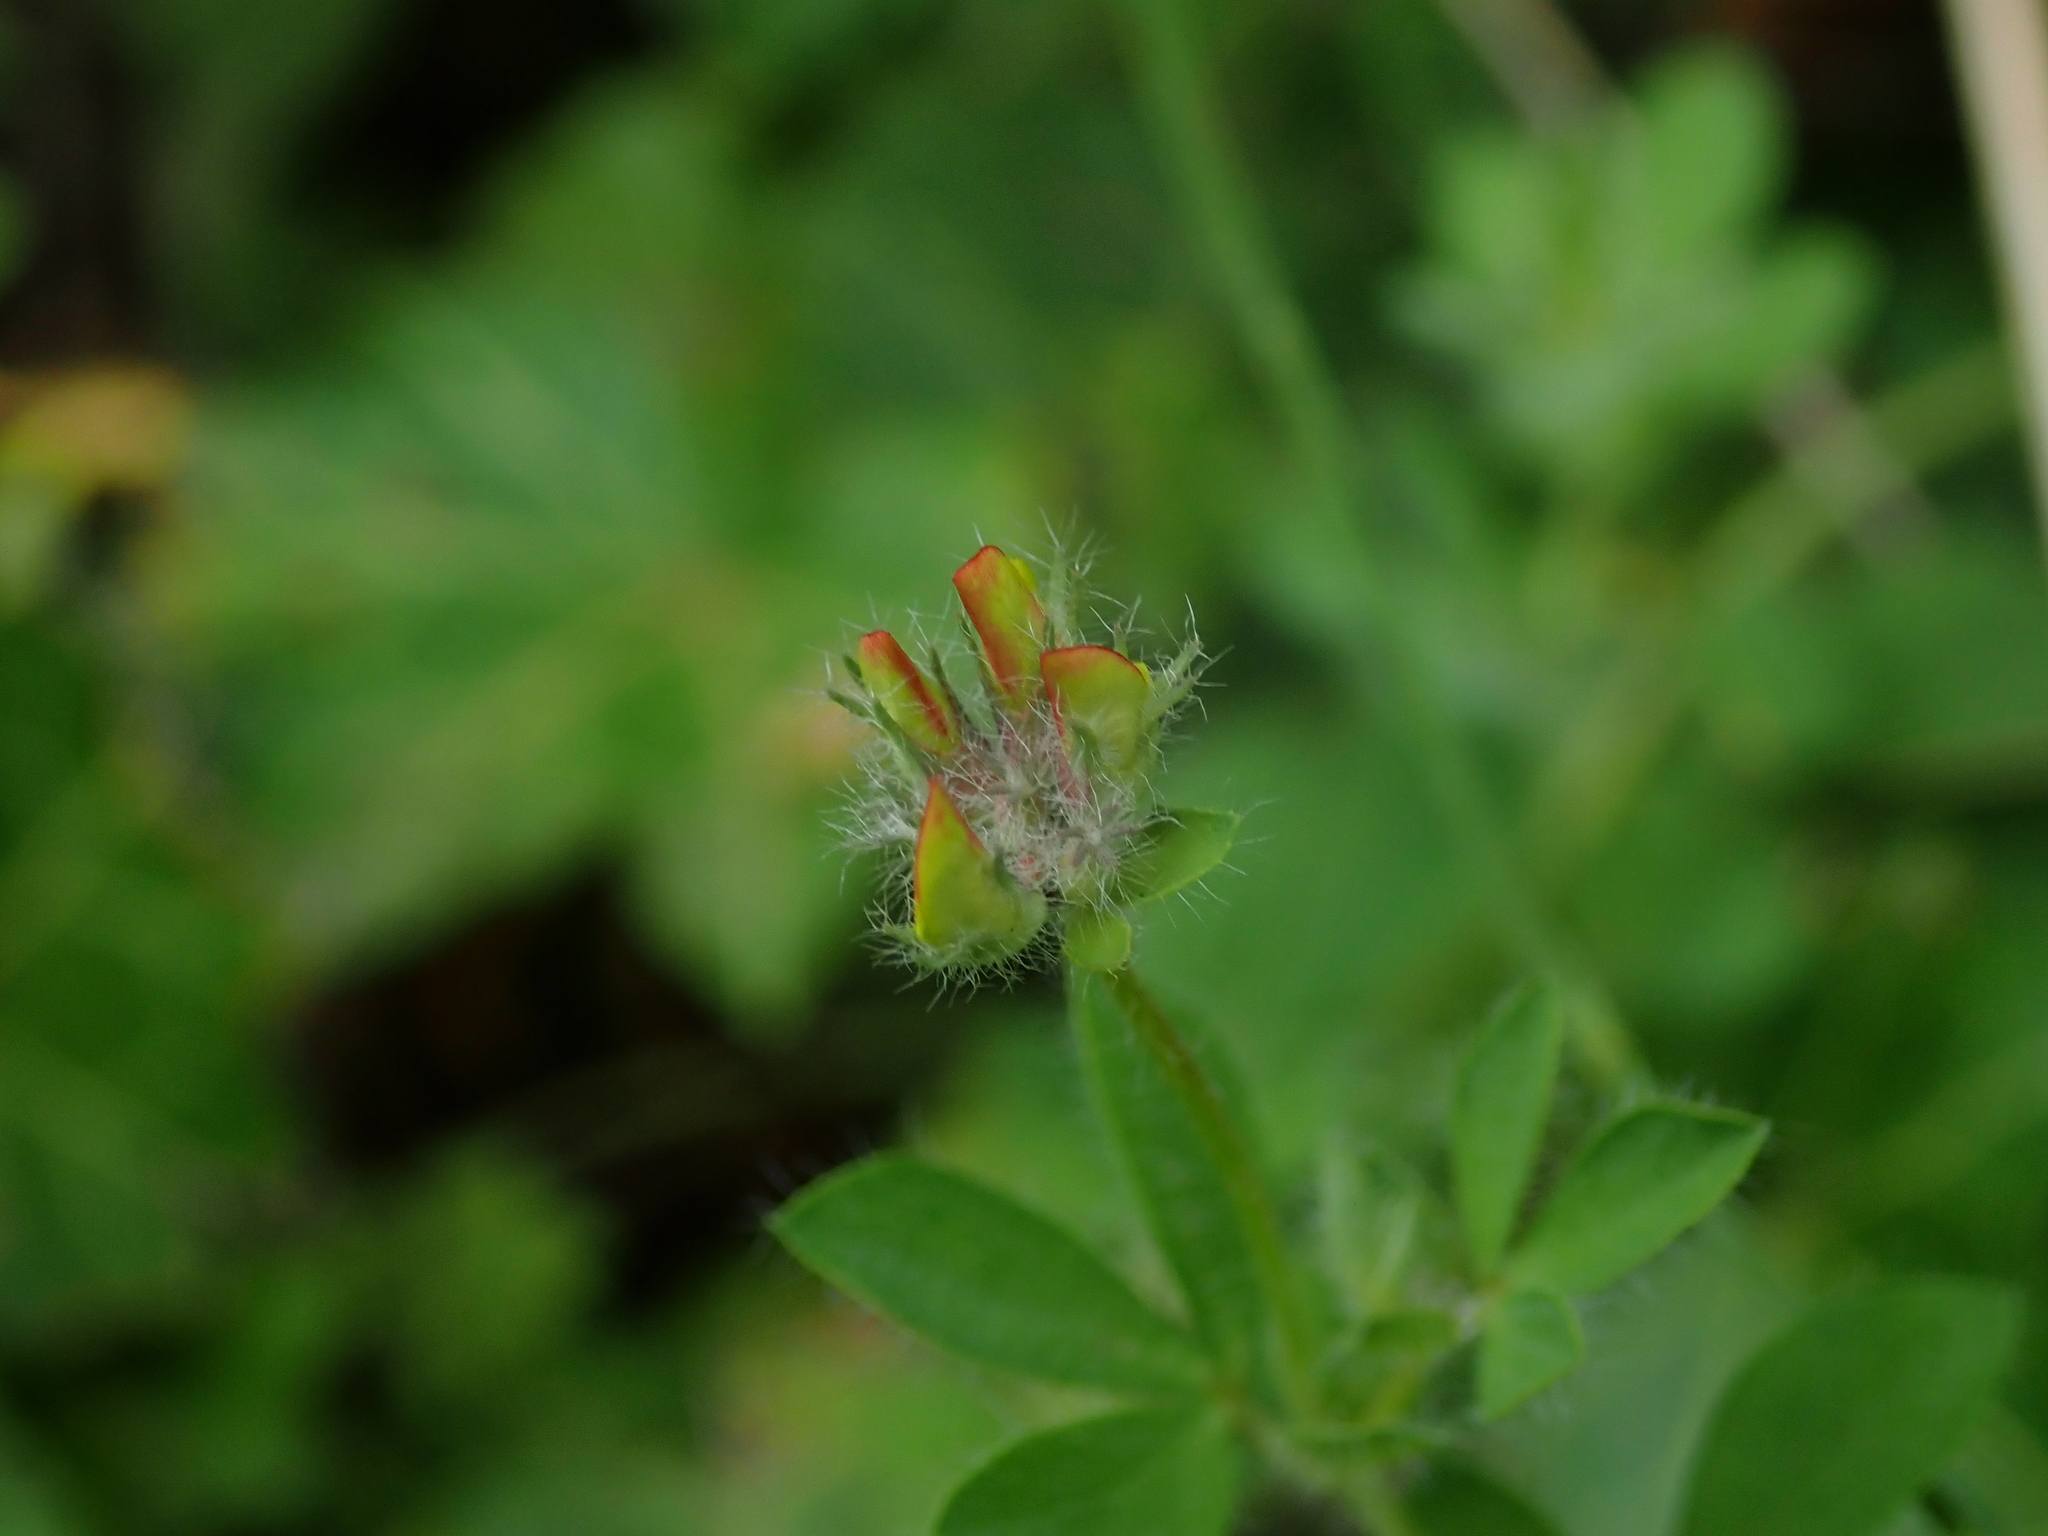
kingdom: Plantae
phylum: Tracheophyta
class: Magnoliopsida
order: Fabales
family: Fabaceae
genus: Lotus
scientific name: Lotus pedunculatus
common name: Greater birdsfoot-trefoil
